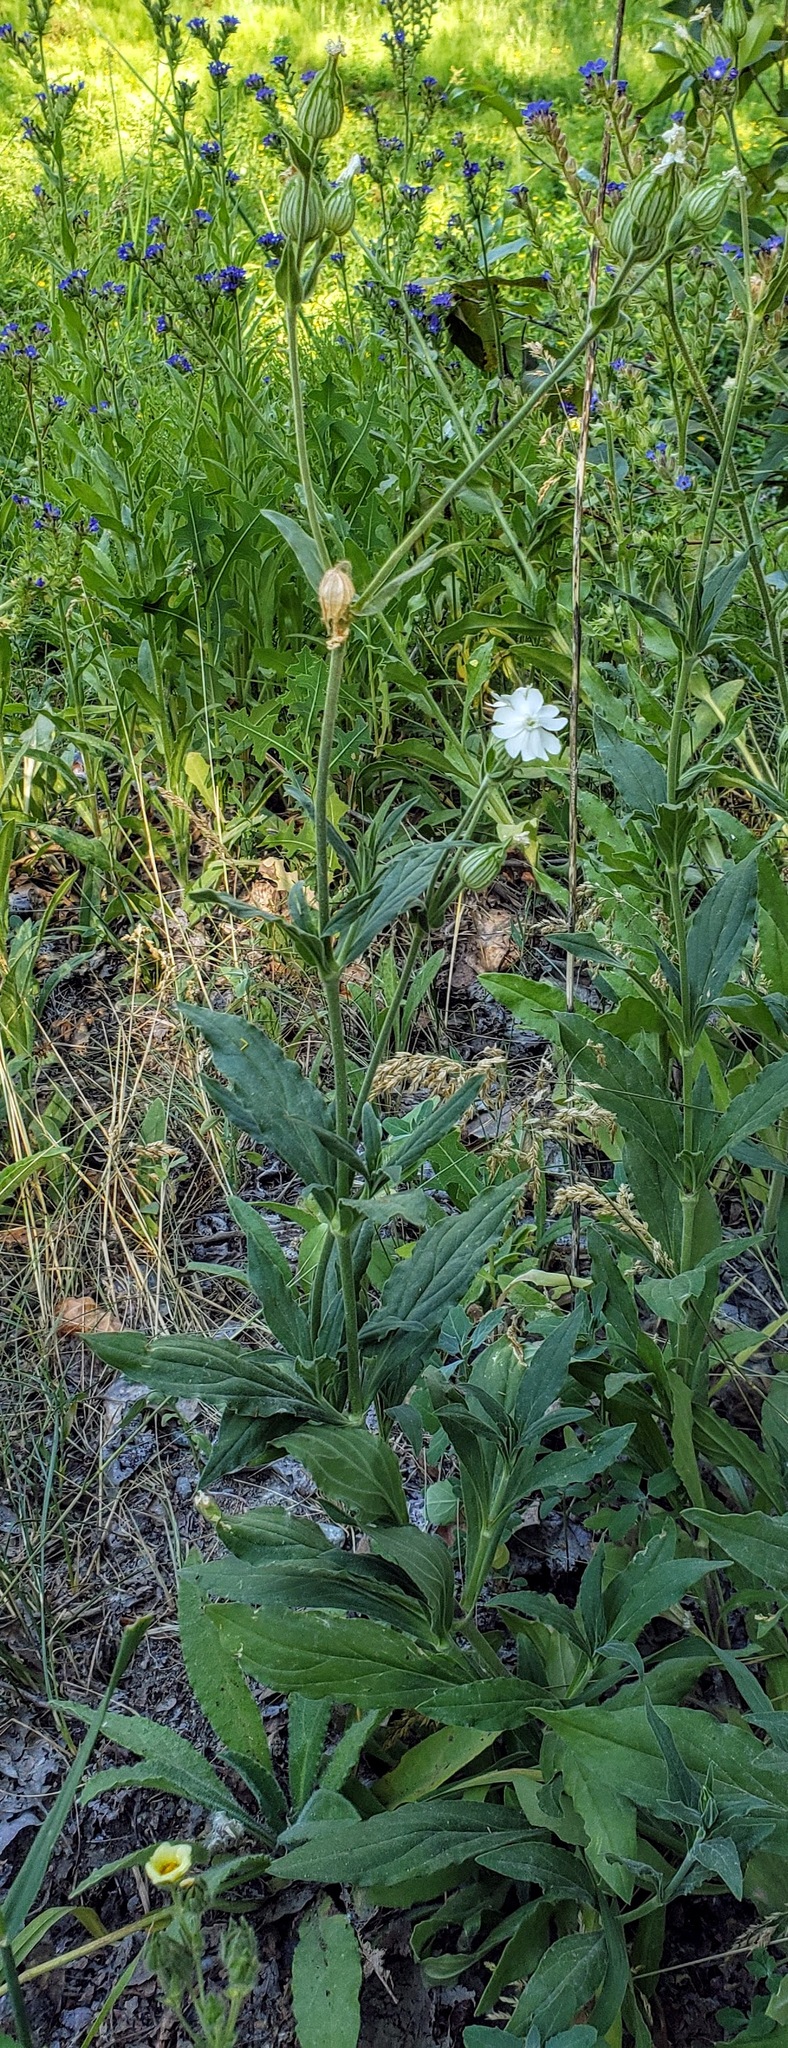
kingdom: Plantae
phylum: Tracheophyta
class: Magnoliopsida
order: Caryophyllales
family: Caryophyllaceae
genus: Silene
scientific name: Silene latifolia
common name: White campion
